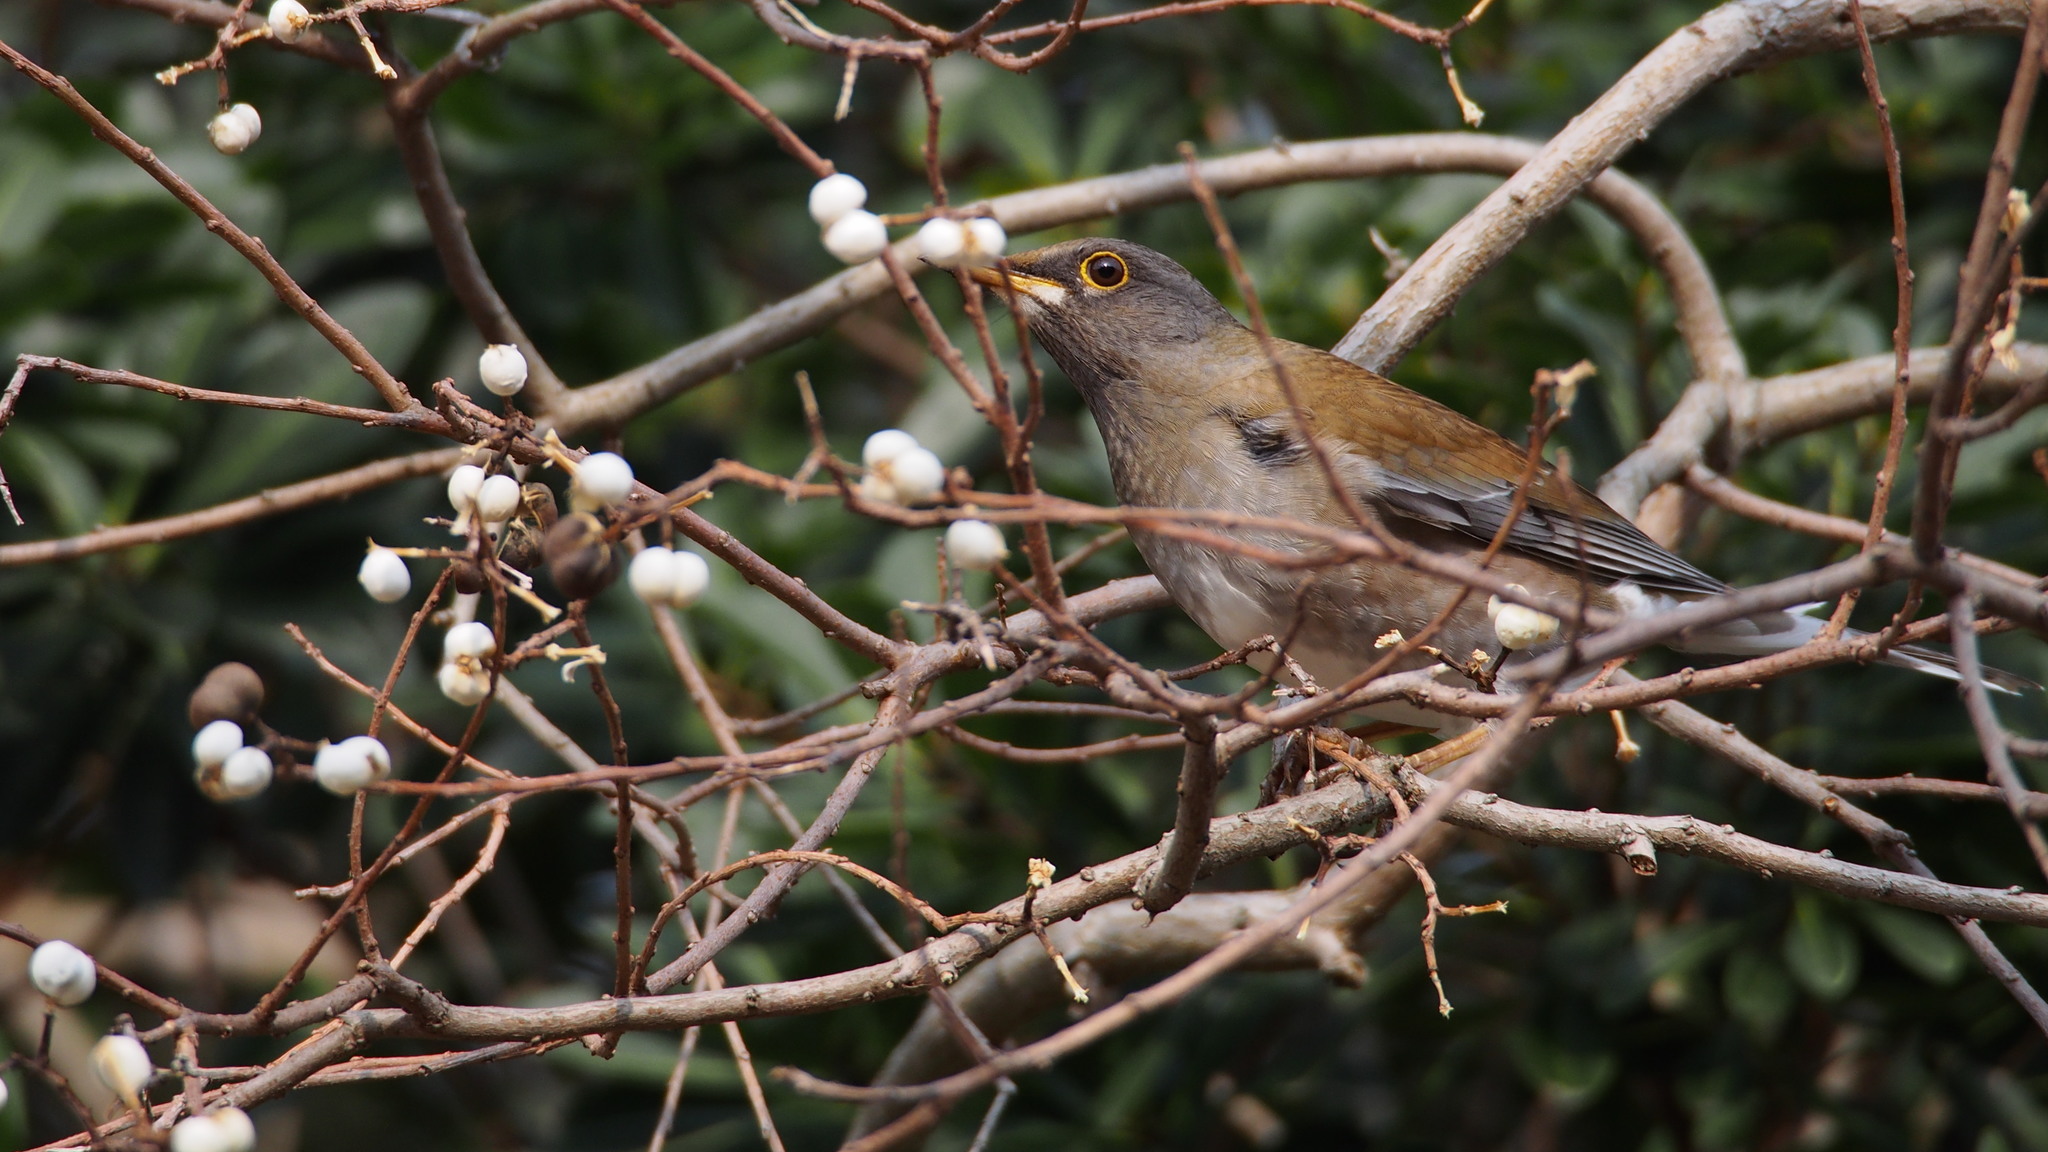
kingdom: Animalia
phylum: Chordata
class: Aves
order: Passeriformes
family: Turdidae
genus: Turdus
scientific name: Turdus pallidus
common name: Pale thrush
